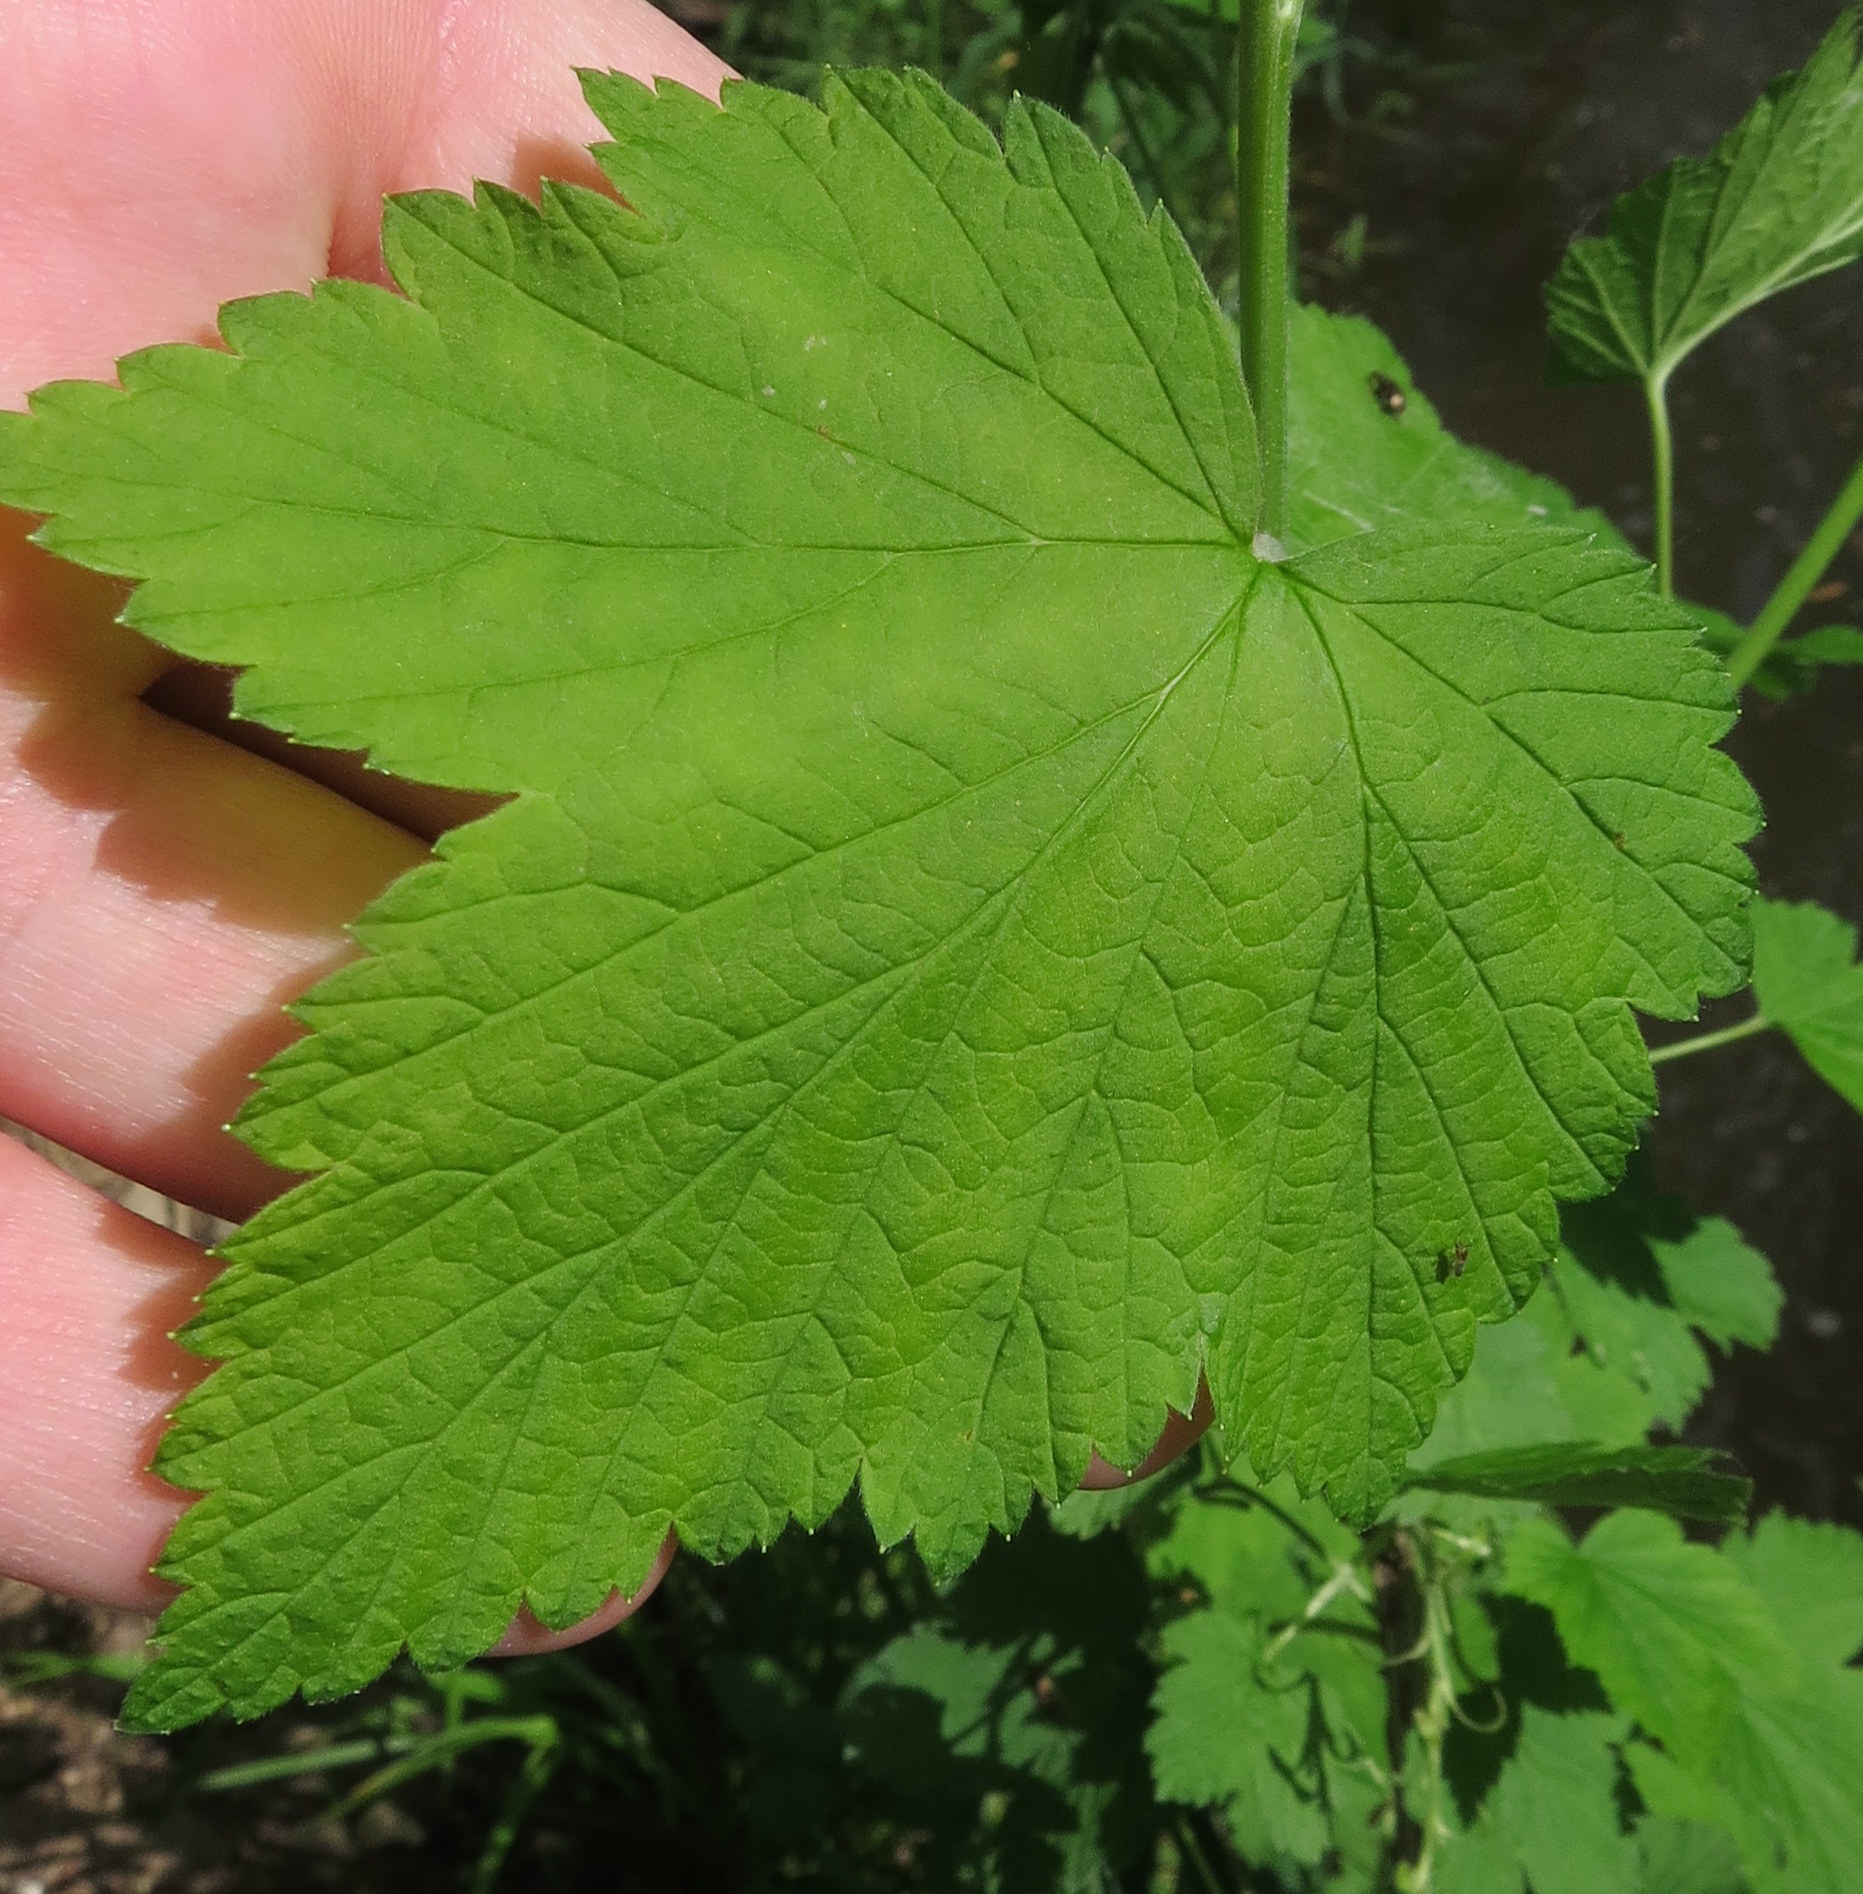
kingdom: Plantae
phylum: Tracheophyta
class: Magnoliopsida
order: Saxifragales
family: Grossulariaceae
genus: Ribes
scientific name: Ribes americanum
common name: American black currant
